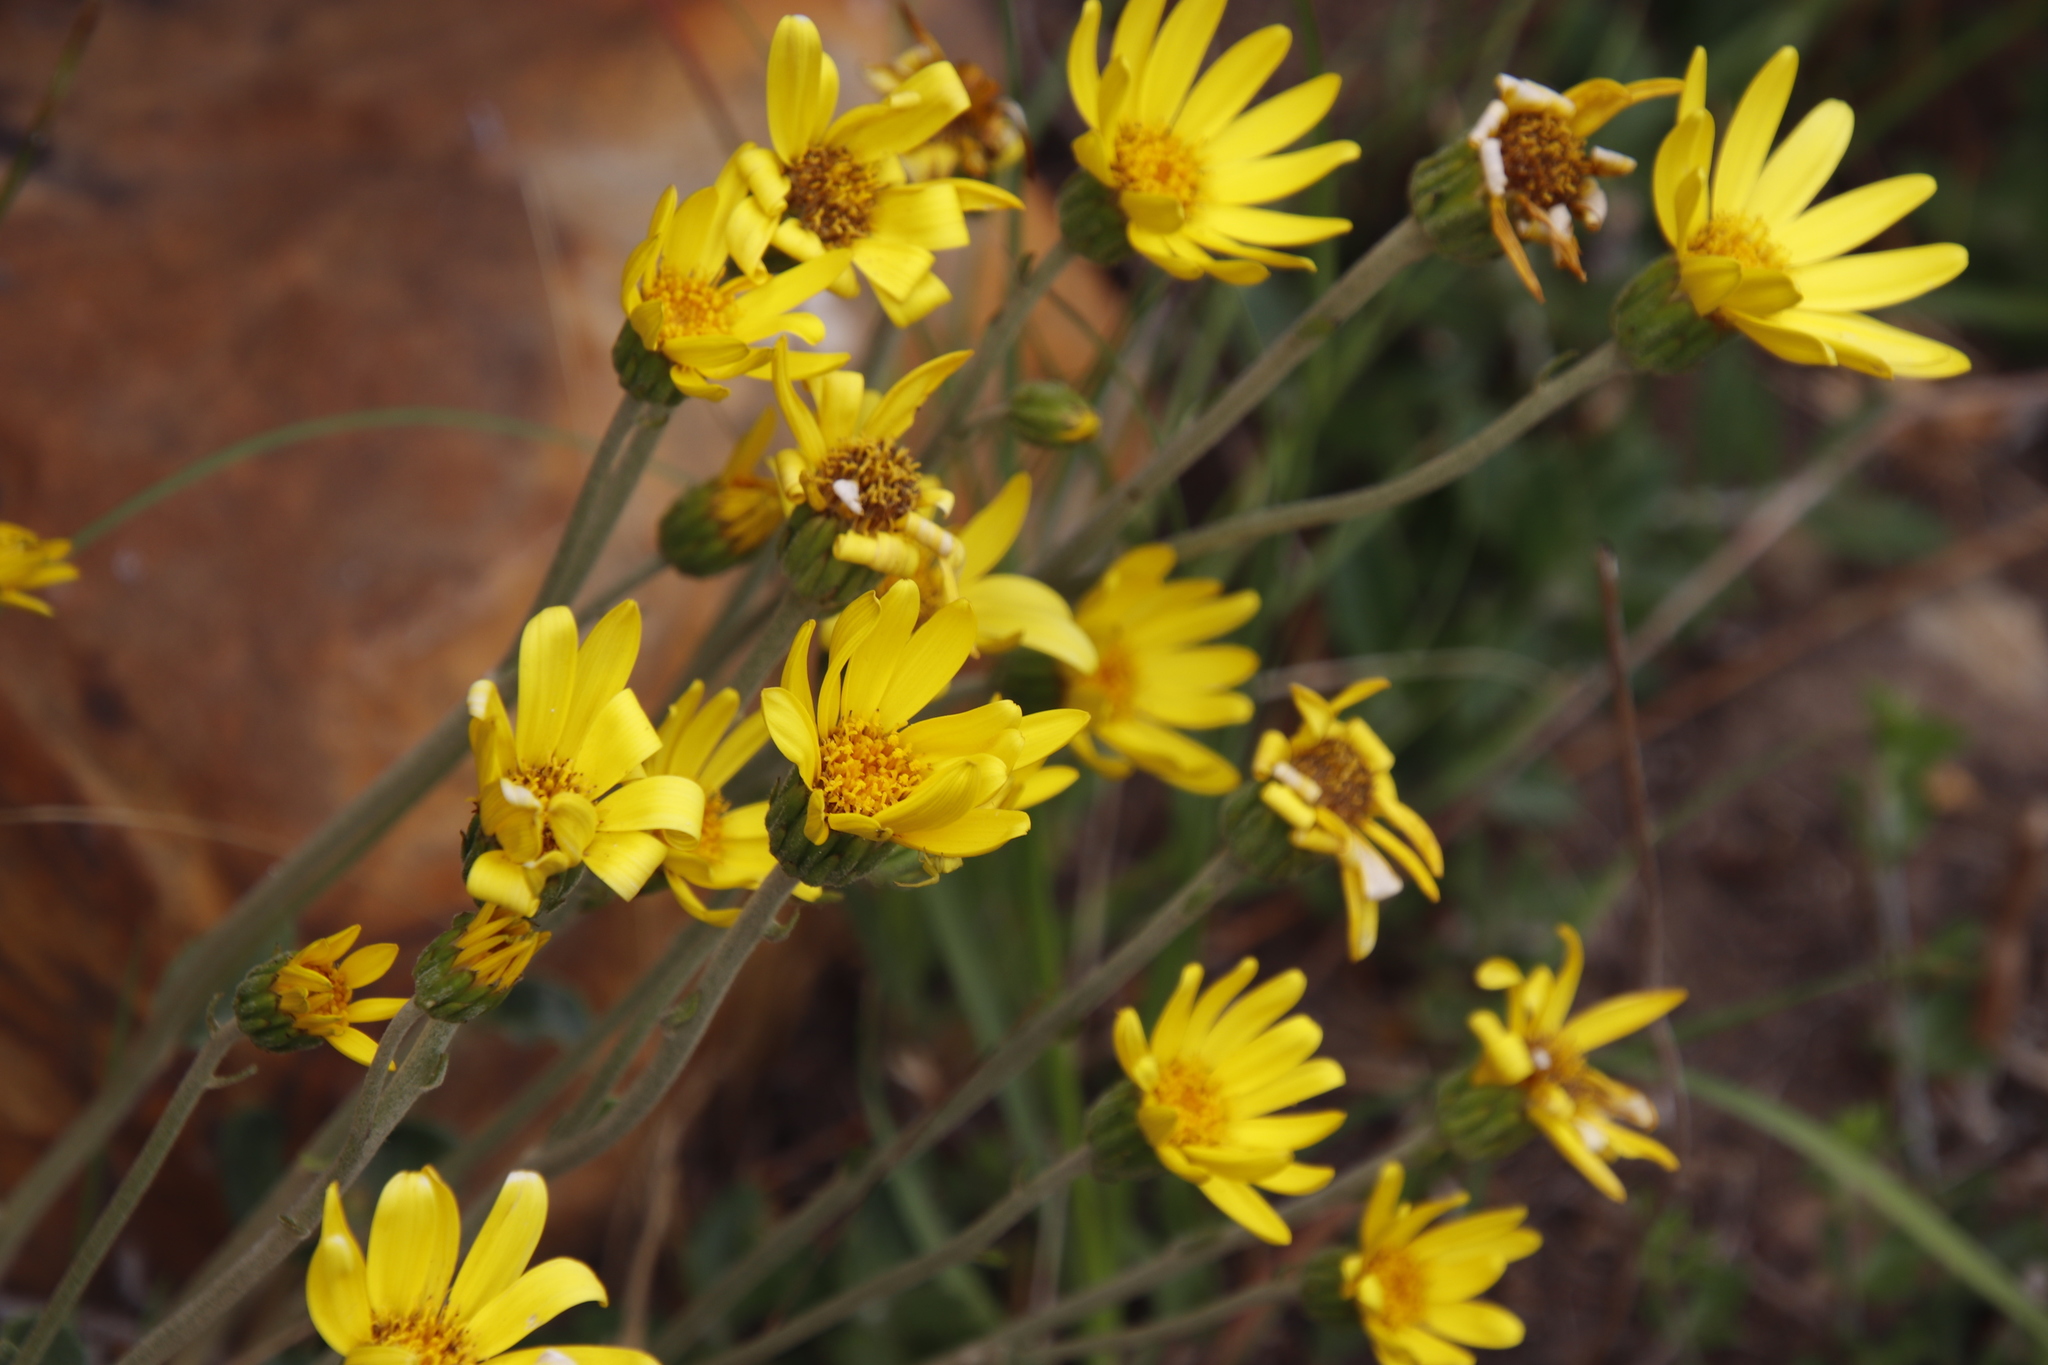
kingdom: Plantae
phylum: Tracheophyta
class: Magnoliopsida
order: Asterales
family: Asteraceae
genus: Capelio
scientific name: Capelio tabularis
